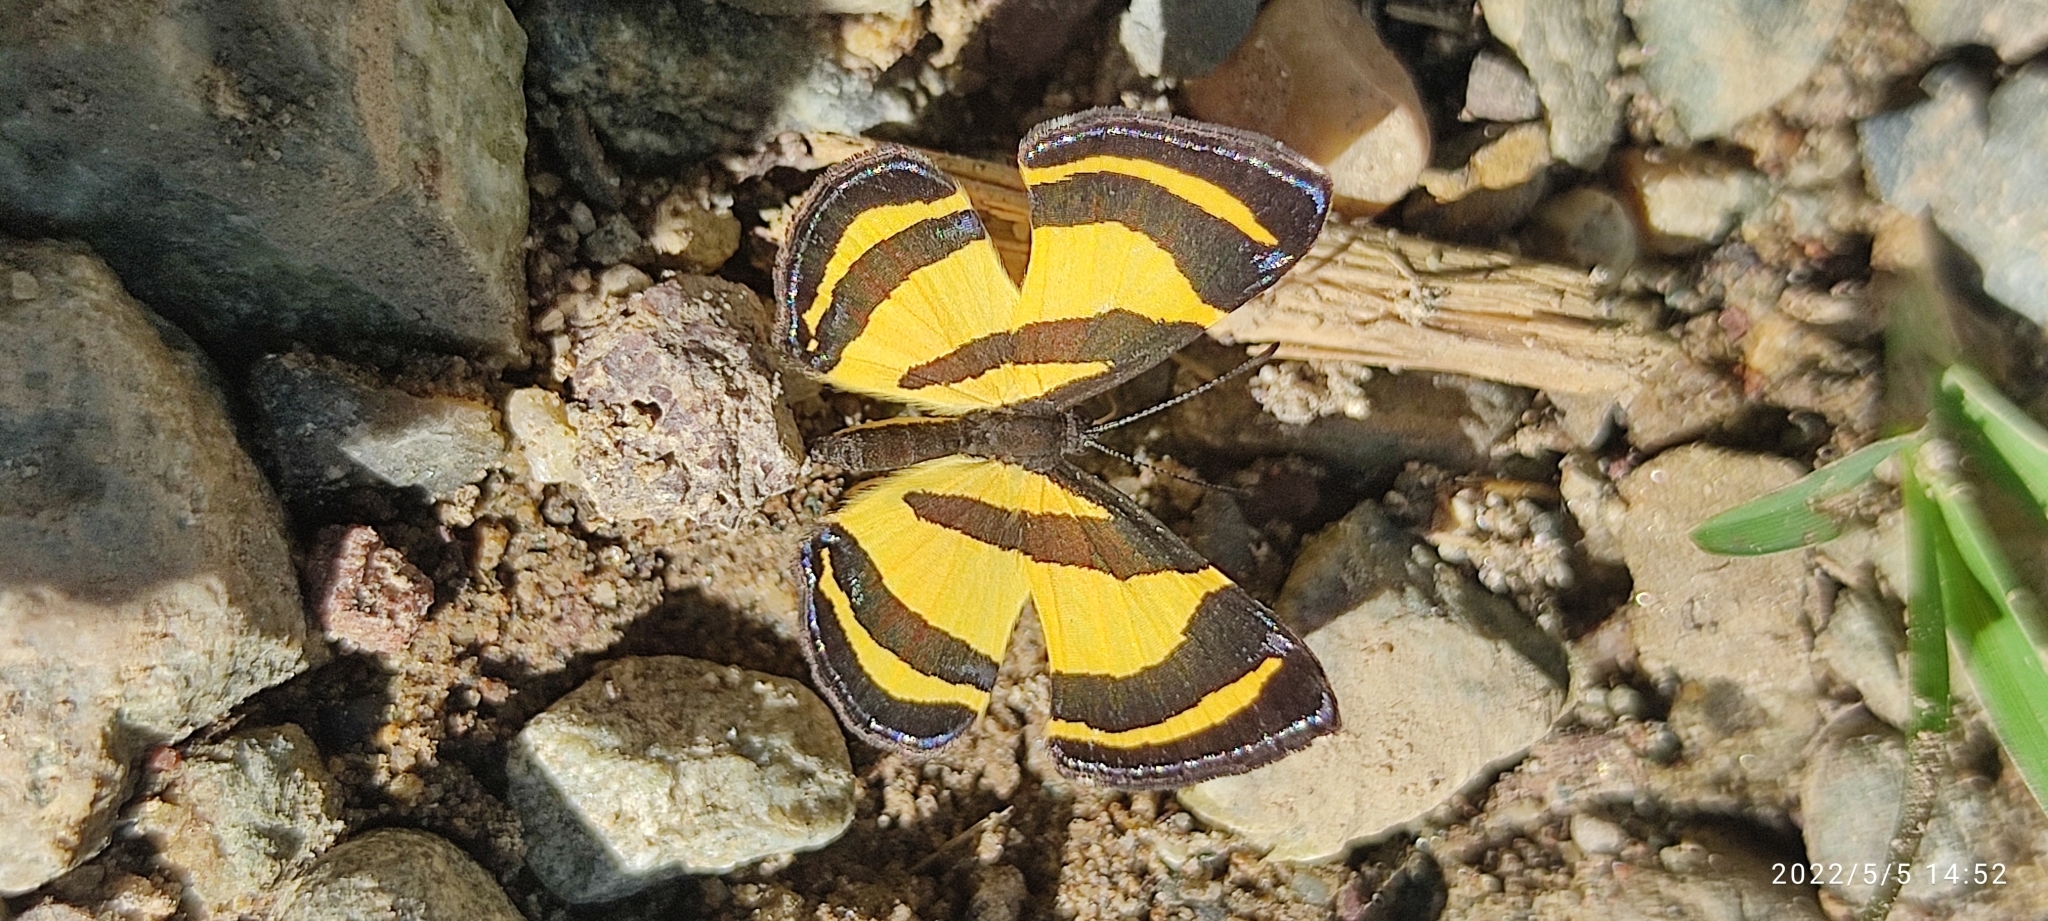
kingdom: Animalia
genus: Baeotis
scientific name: Baeotis
